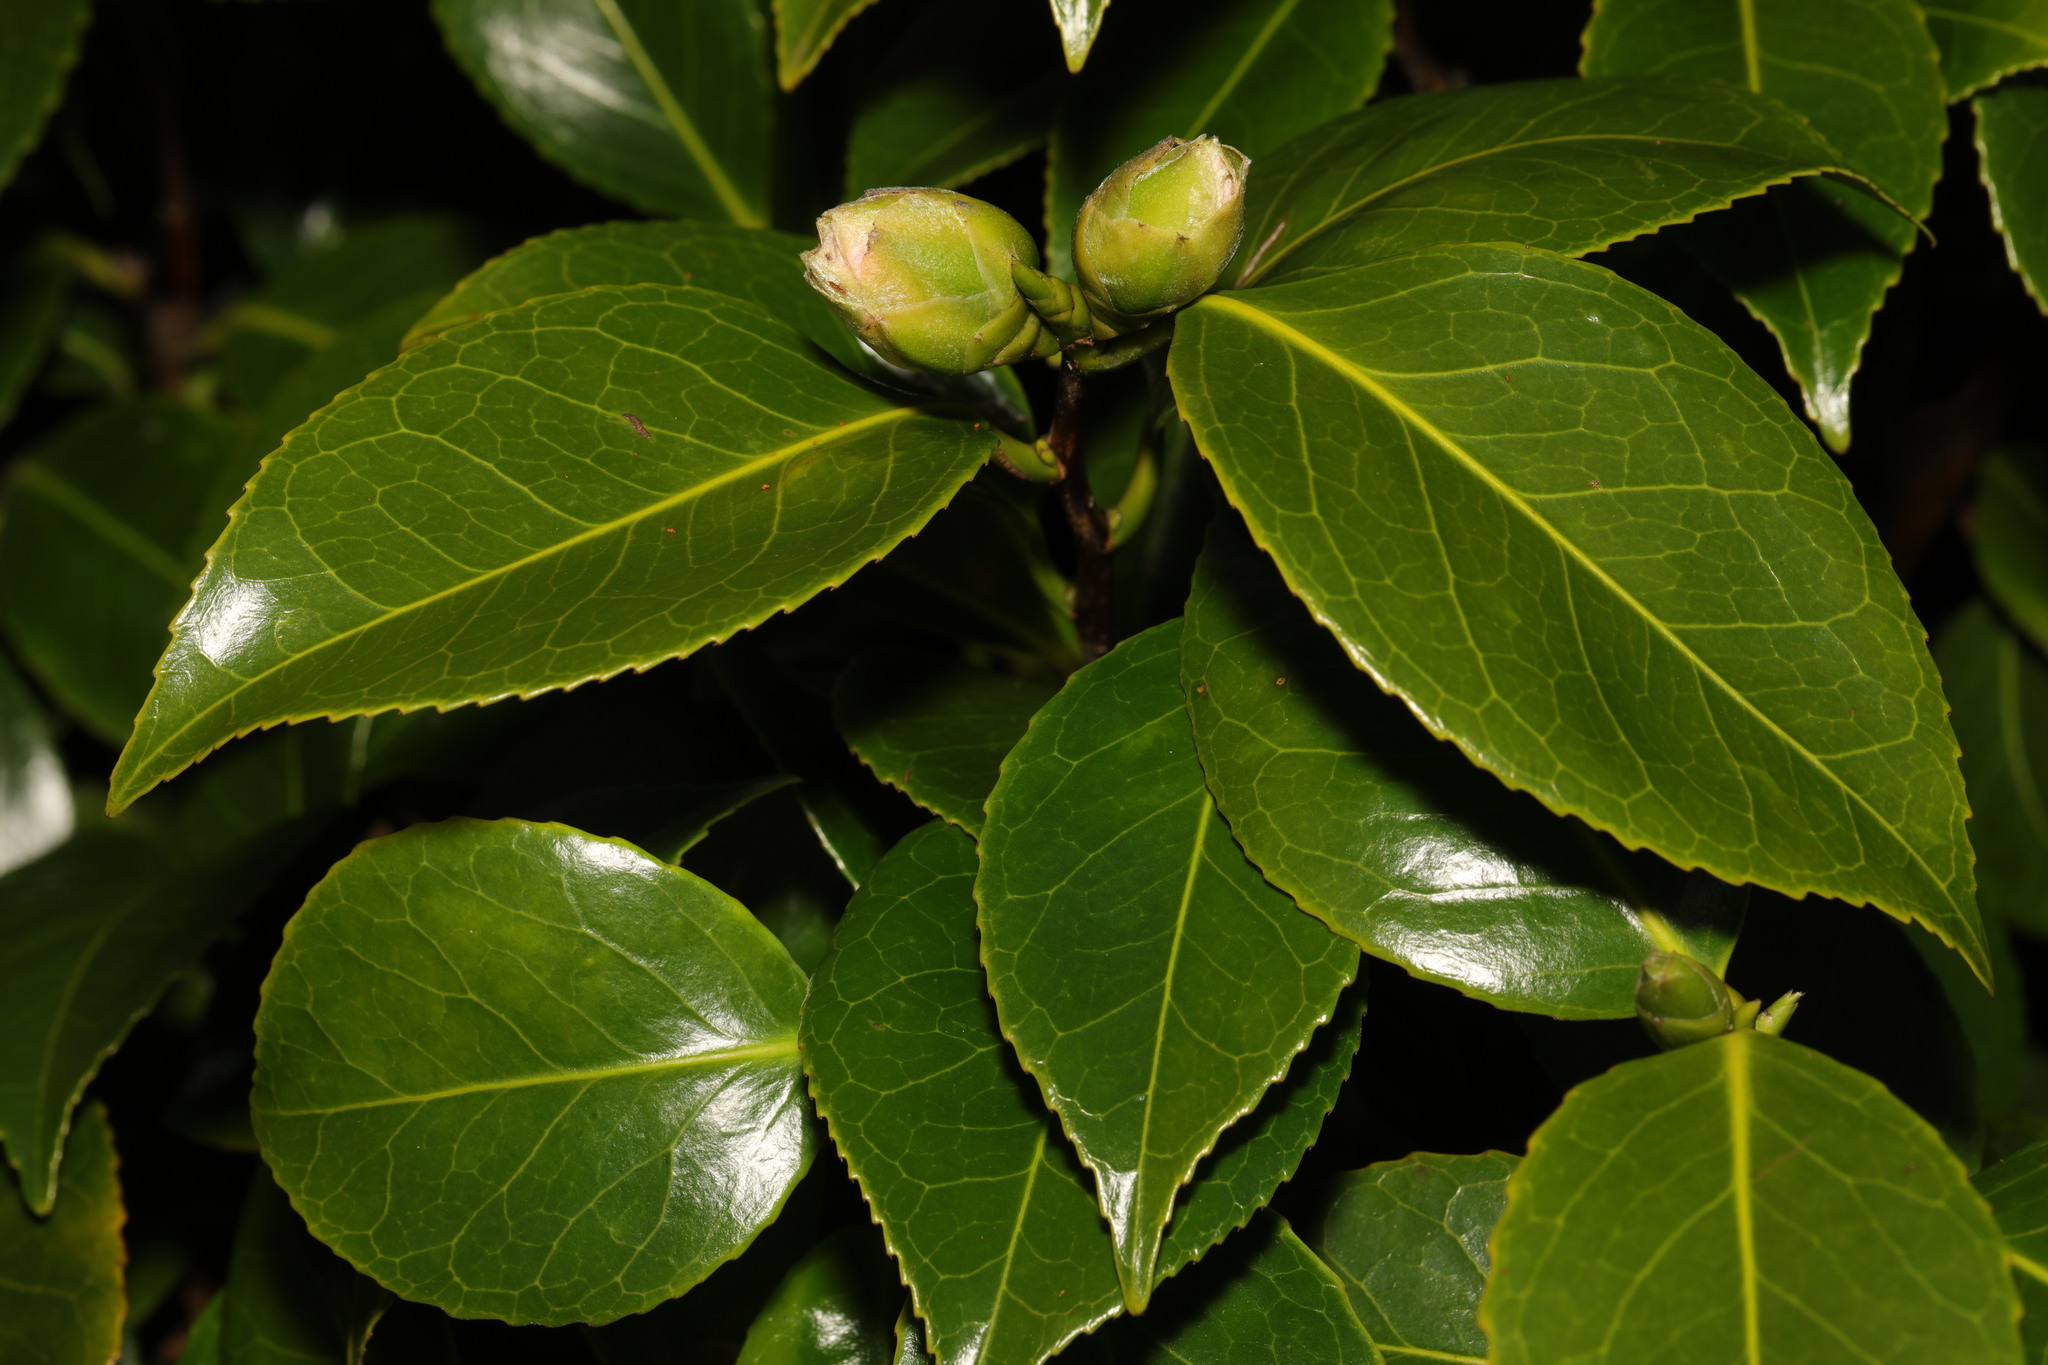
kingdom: Plantae
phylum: Tracheophyta
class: Magnoliopsida
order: Ericales
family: Theaceae
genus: Camellia
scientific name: Camellia japonica
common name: Camellia
